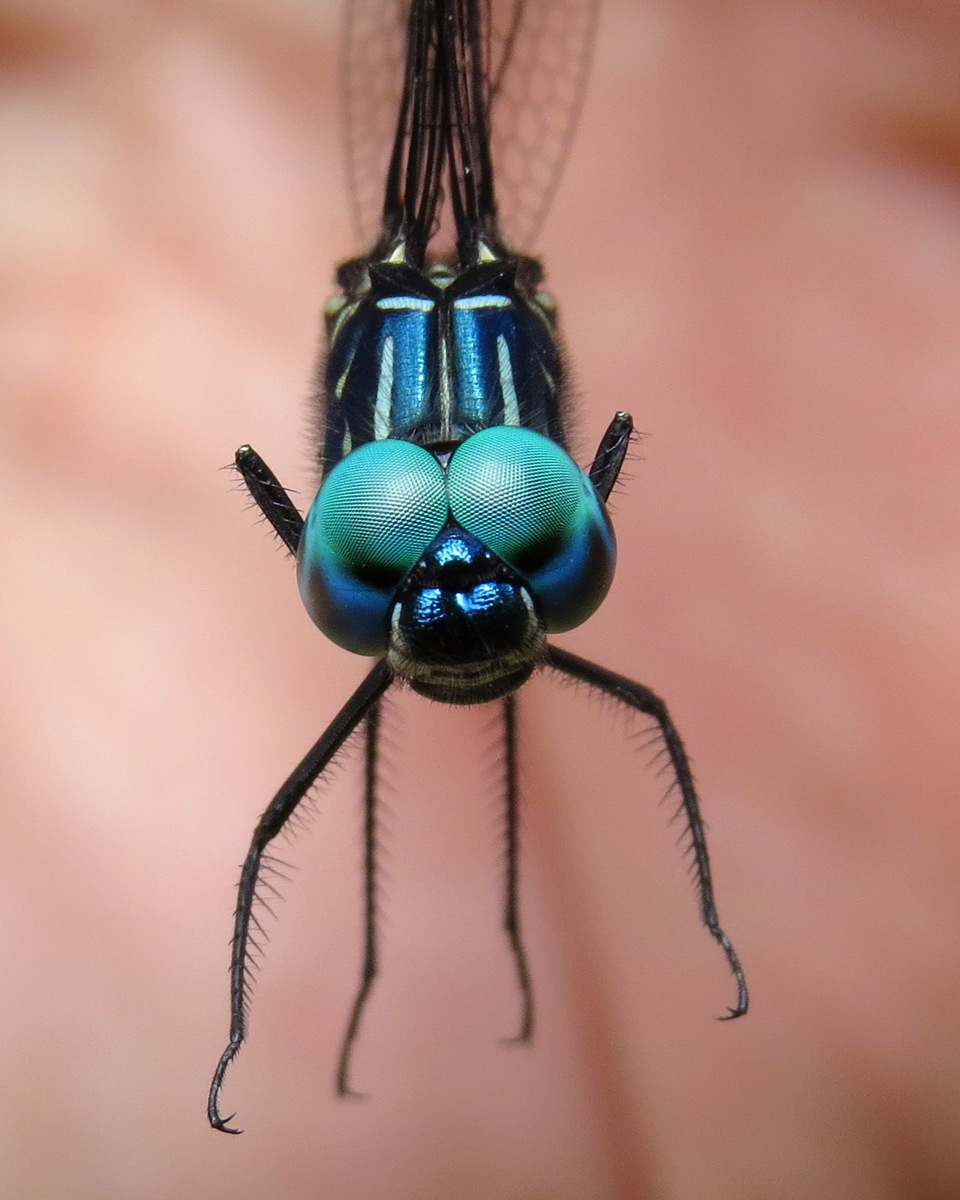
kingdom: Animalia
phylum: Arthropoda
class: Insecta
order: Odonata
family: Libellulidae
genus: Dythemis
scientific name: Dythemis nigra
